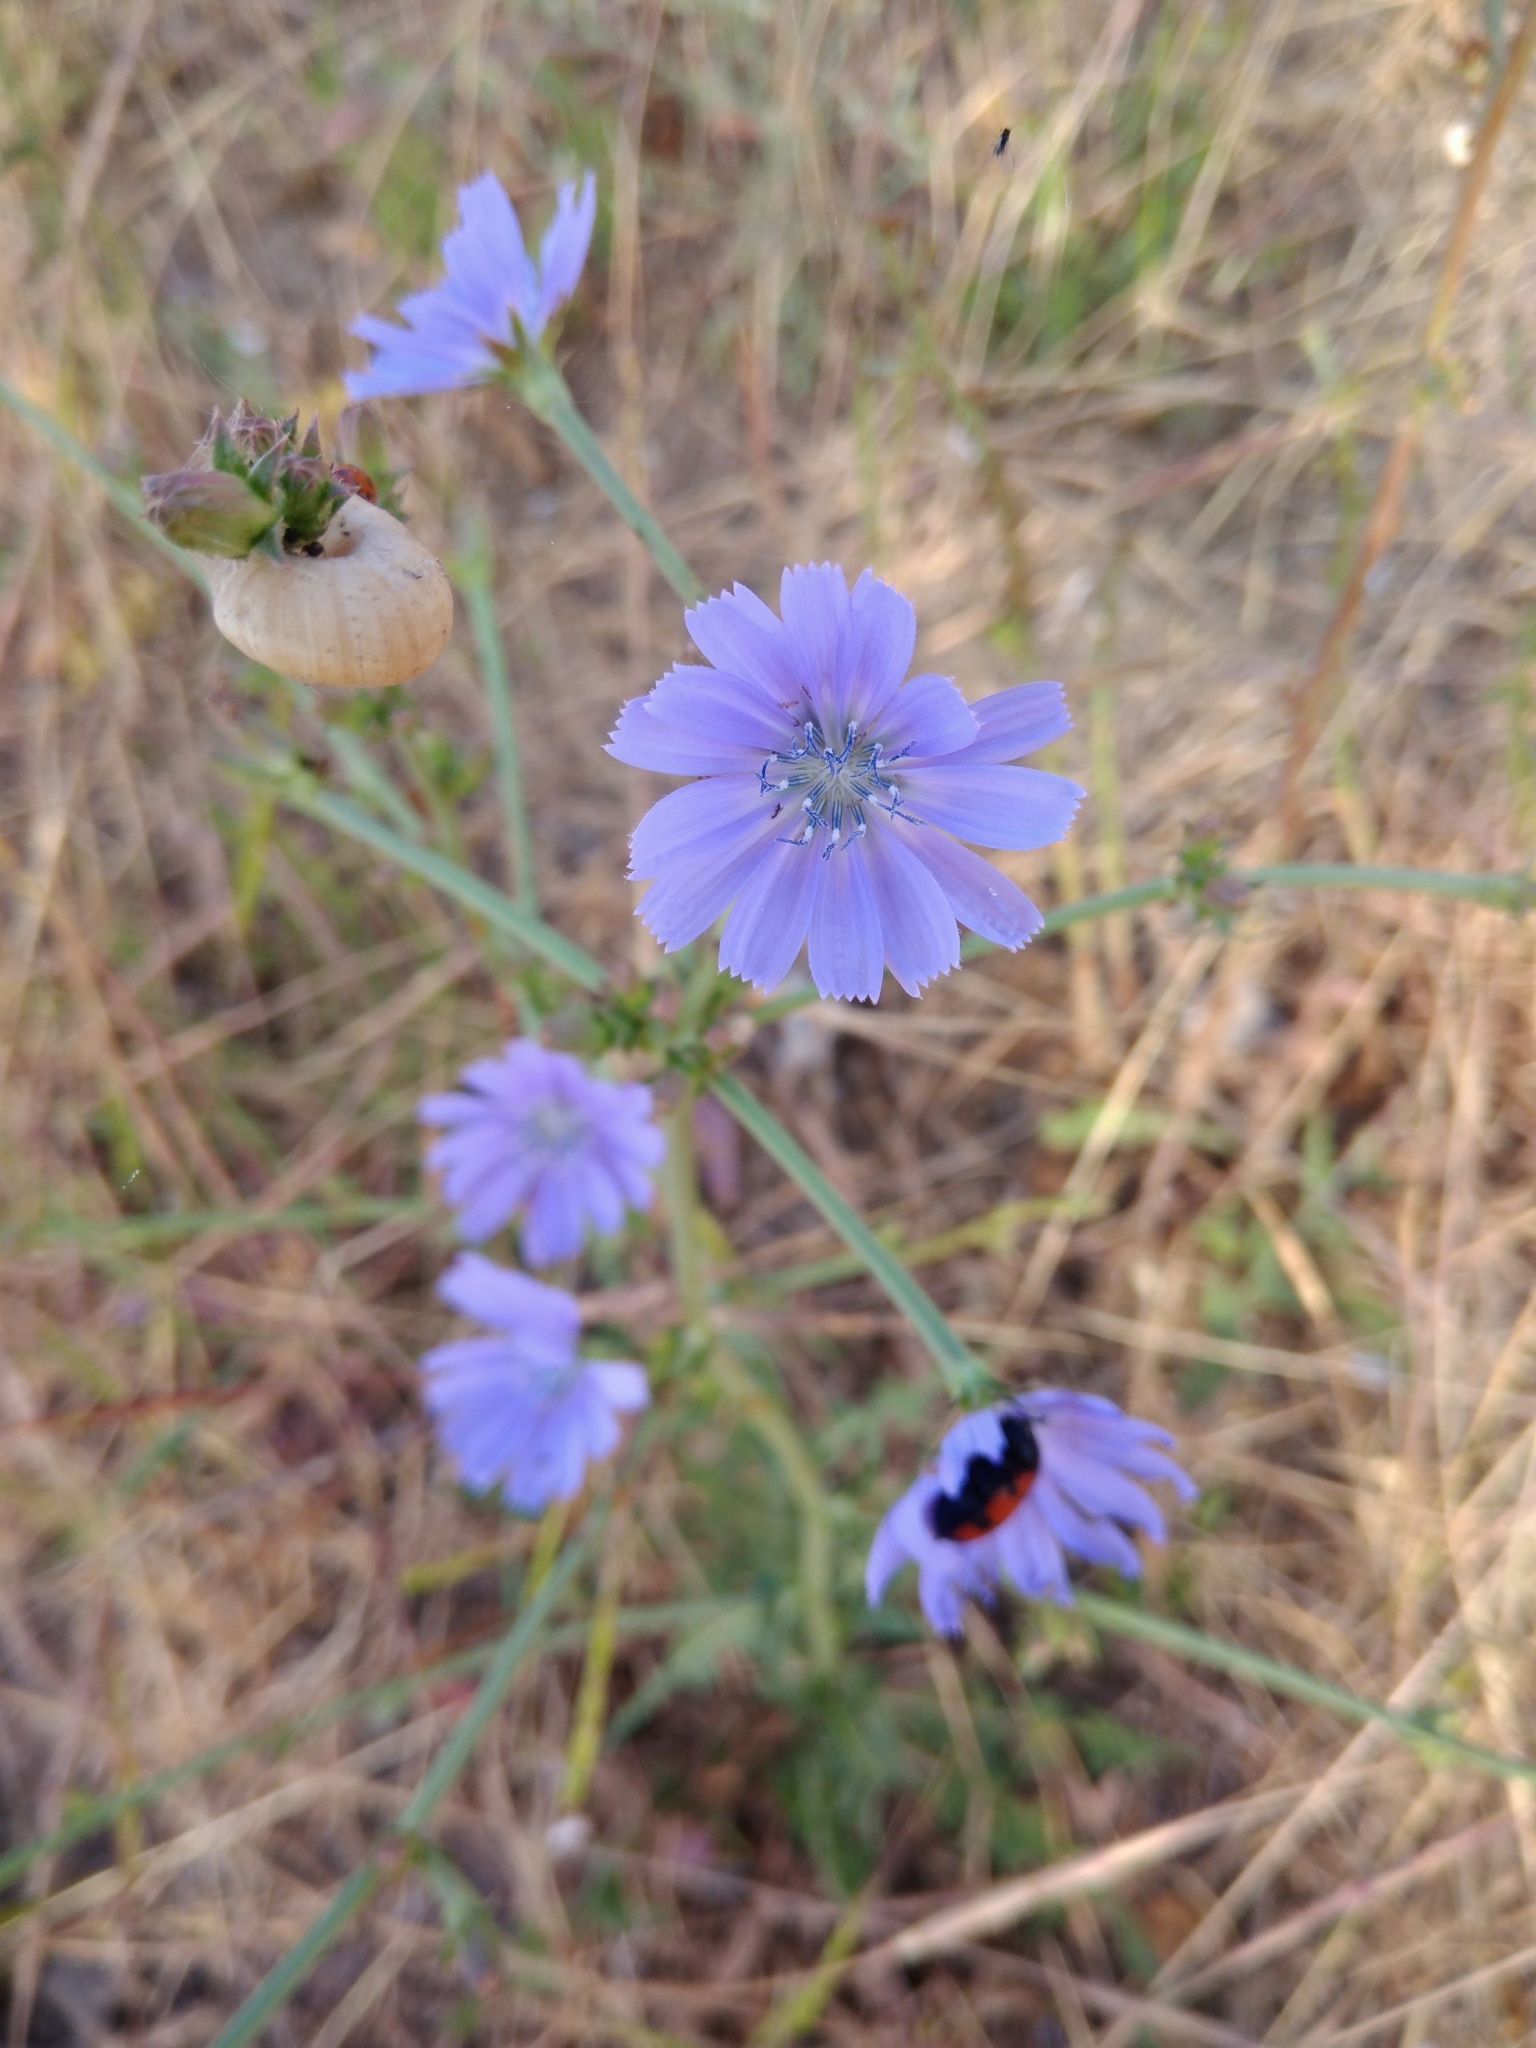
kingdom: Plantae
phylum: Tracheophyta
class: Magnoliopsida
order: Asterales
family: Asteraceae
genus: Cichorium
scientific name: Cichorium intybus
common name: Chicory
